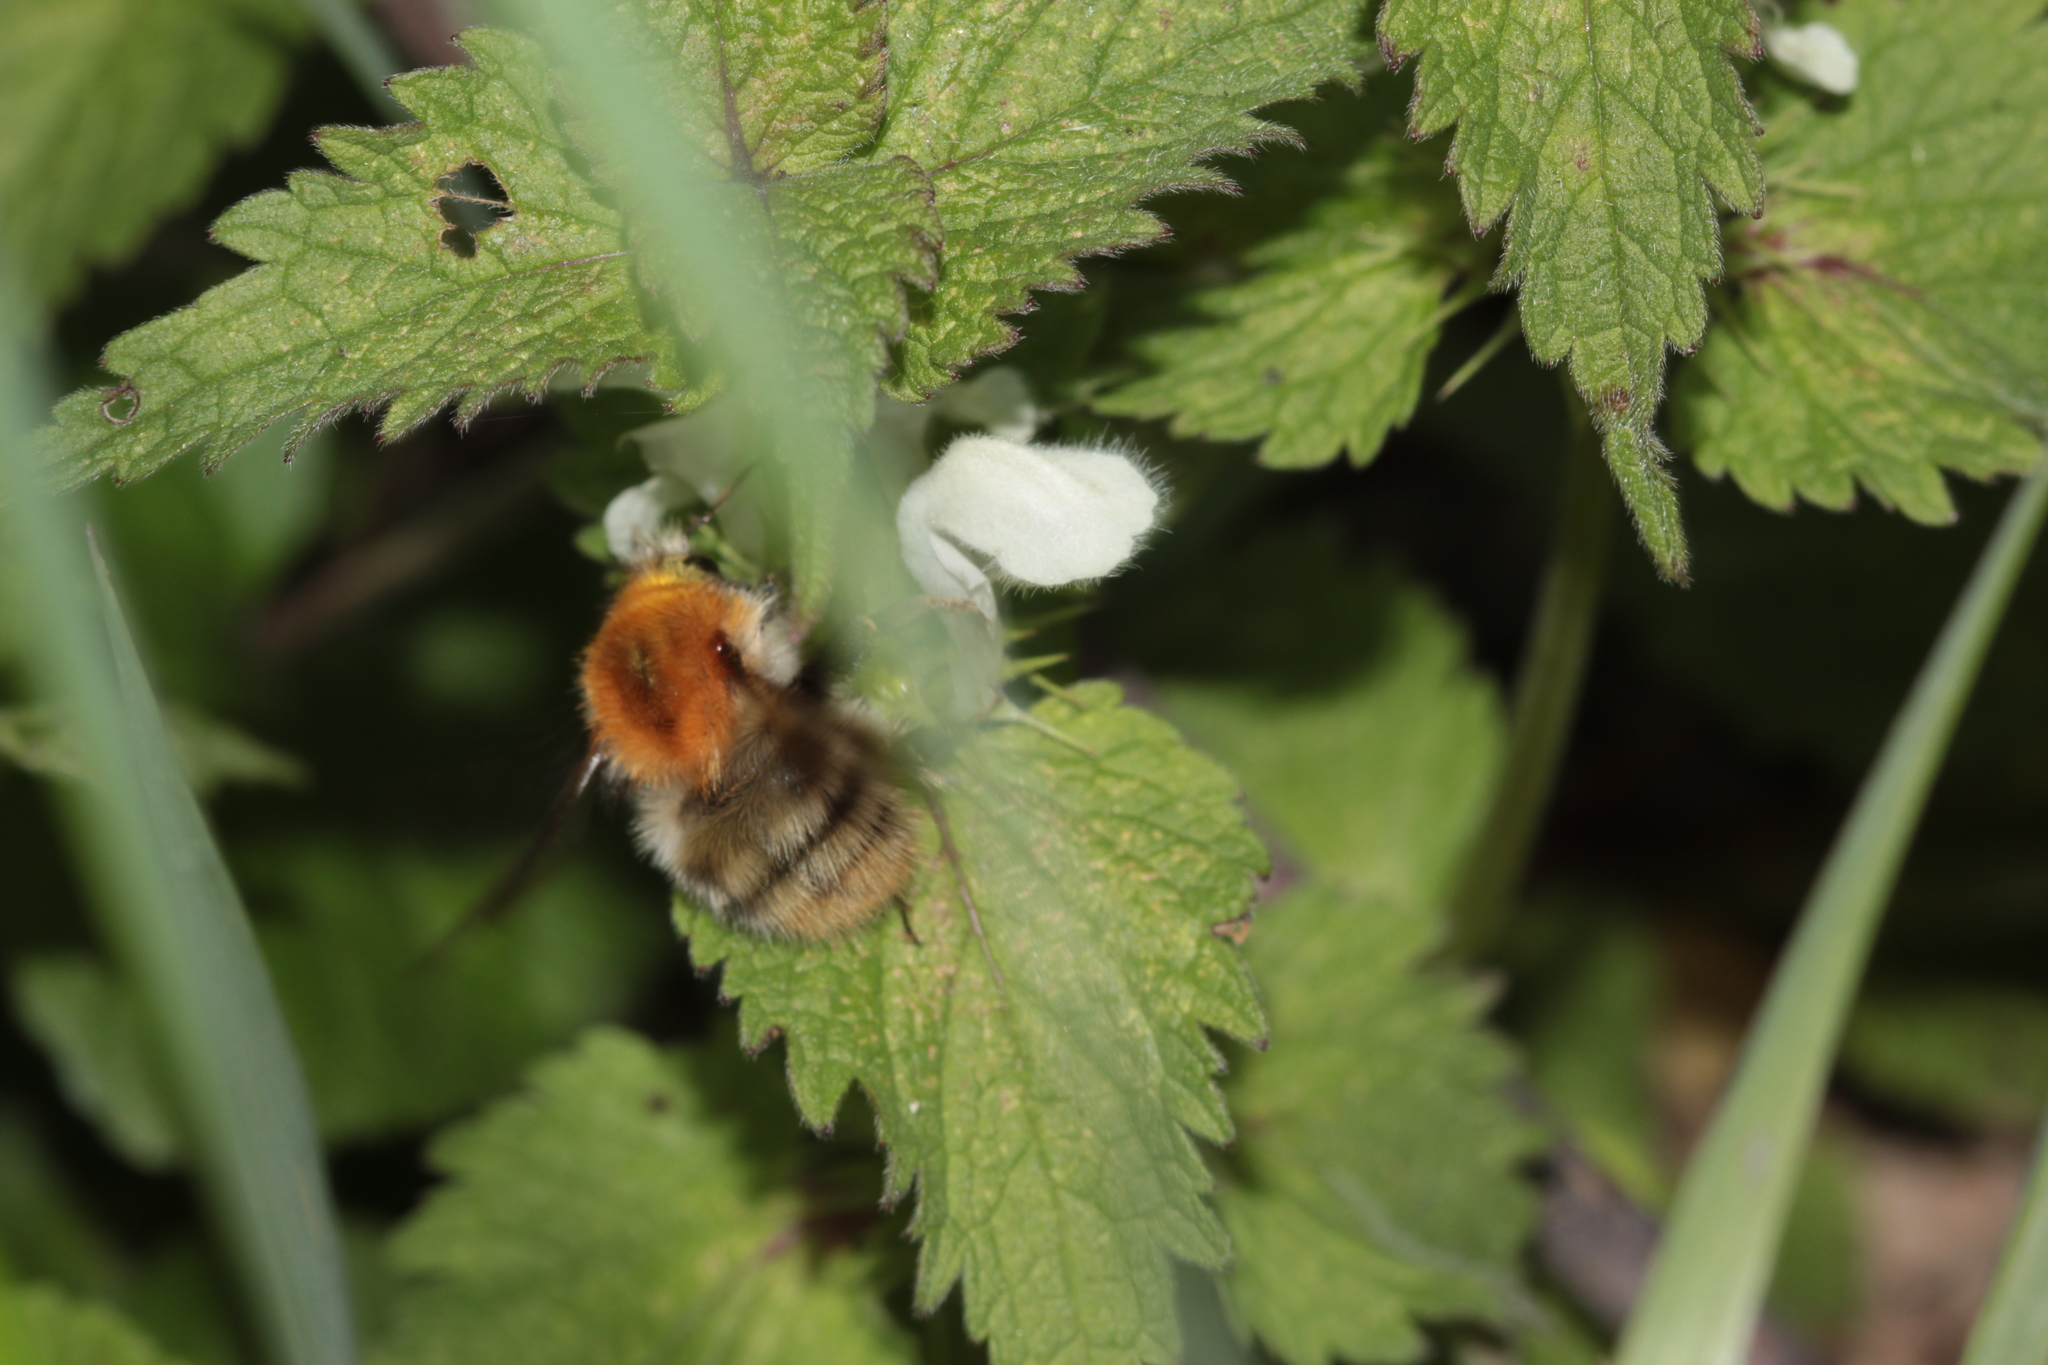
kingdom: Animalia
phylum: Arthropoda
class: Insecta
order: Hymenoptera
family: Apidae
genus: Bombus
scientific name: Bombus pascuorum
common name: Common carder bee
